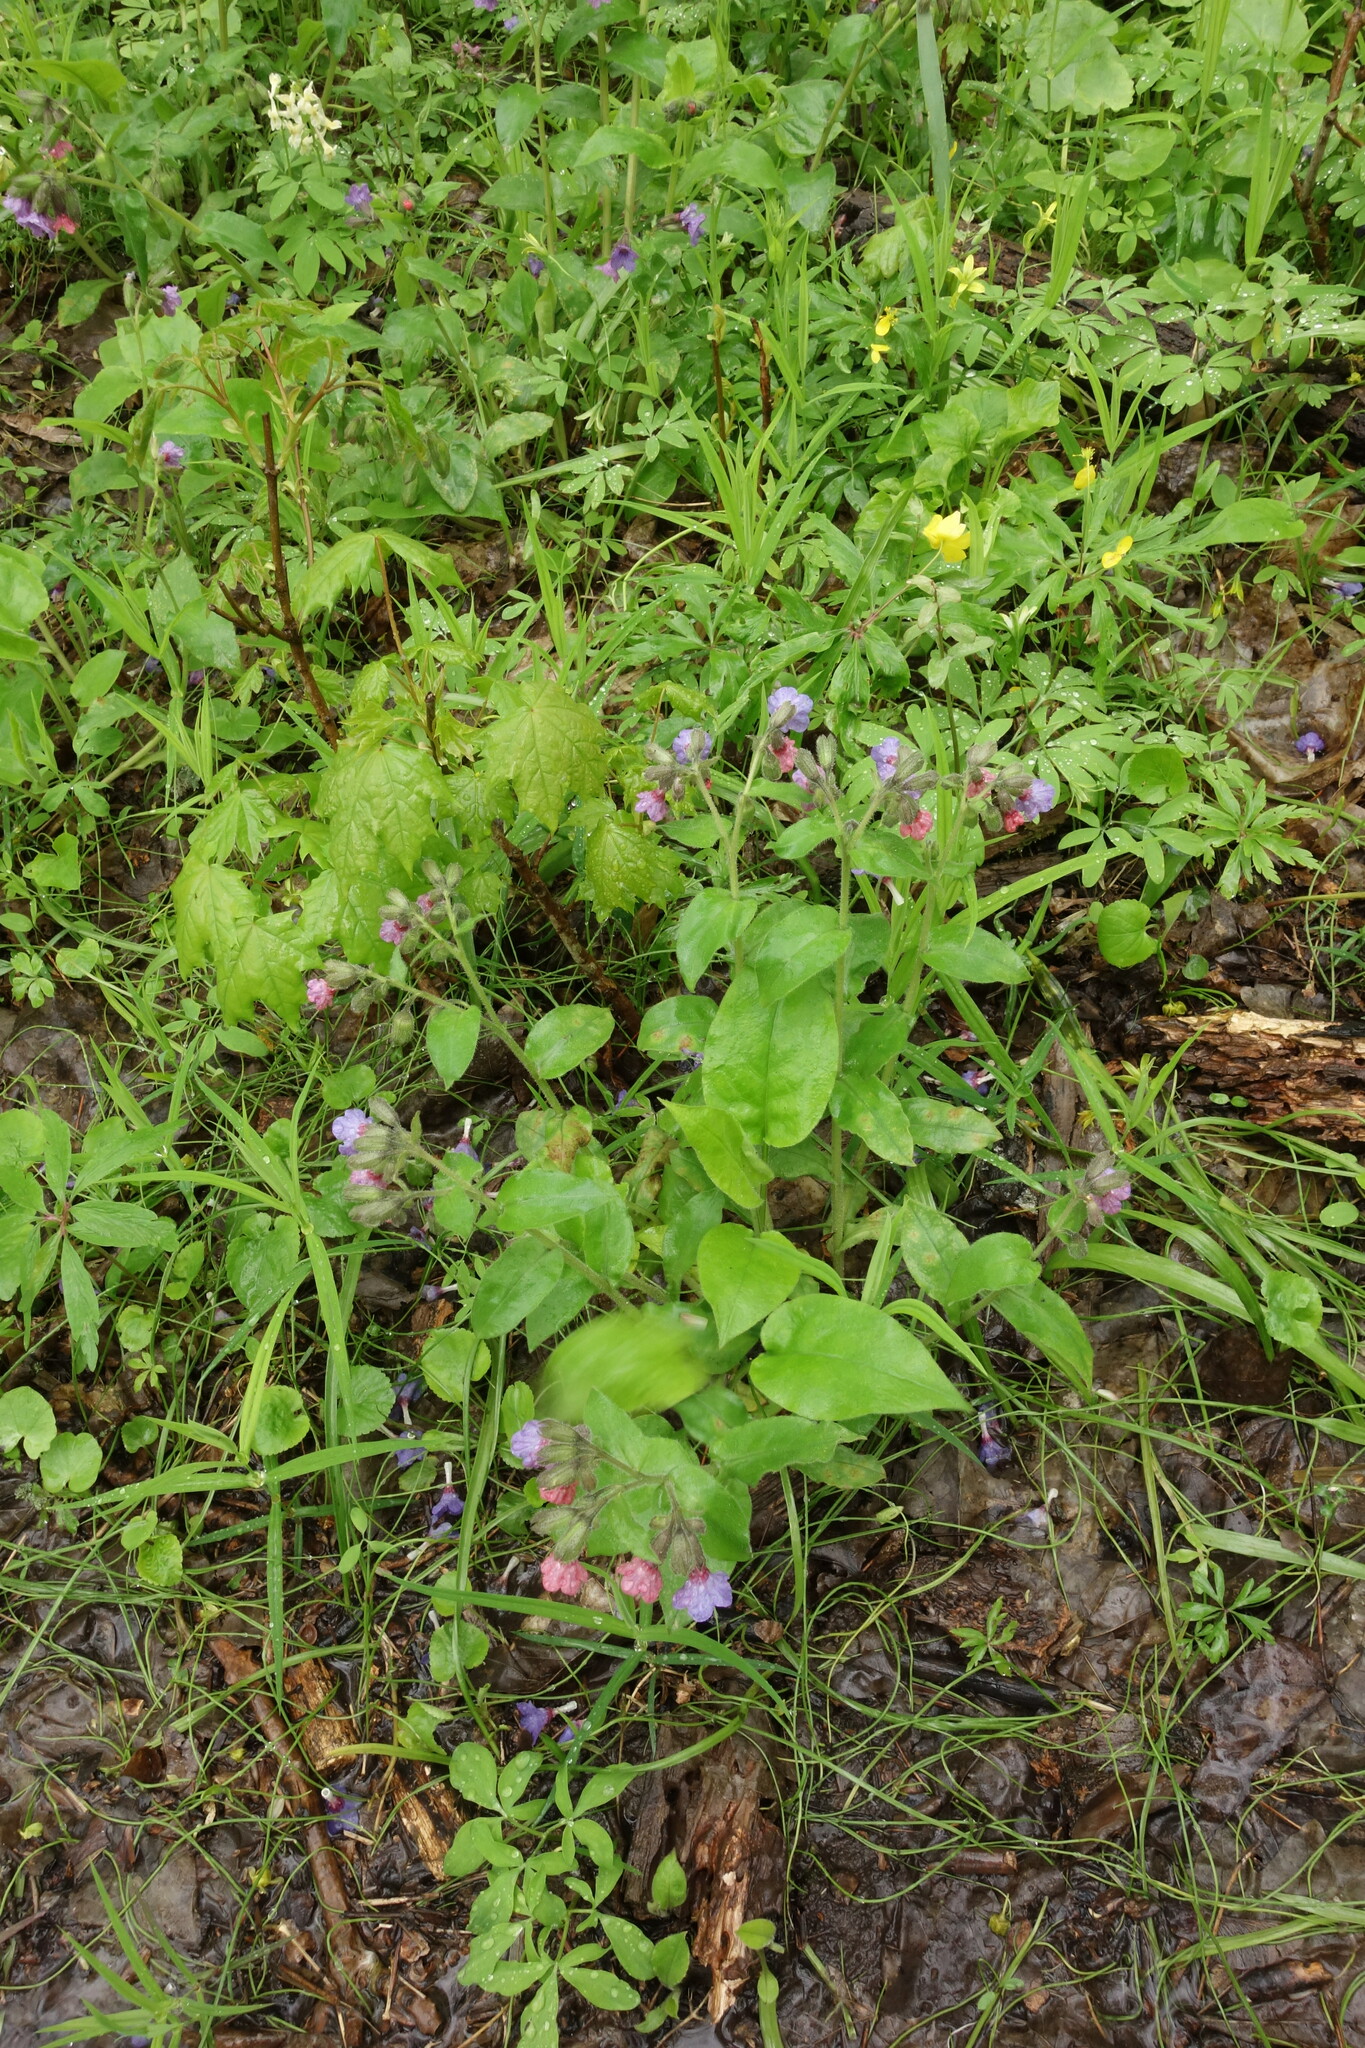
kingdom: Plantae
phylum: Tracheophyta
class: Magnoliopsida
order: Boraginales
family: Boraginaceae
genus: Pulmonaria
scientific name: Pulmonaria obscura
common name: Suffolk lungwort
